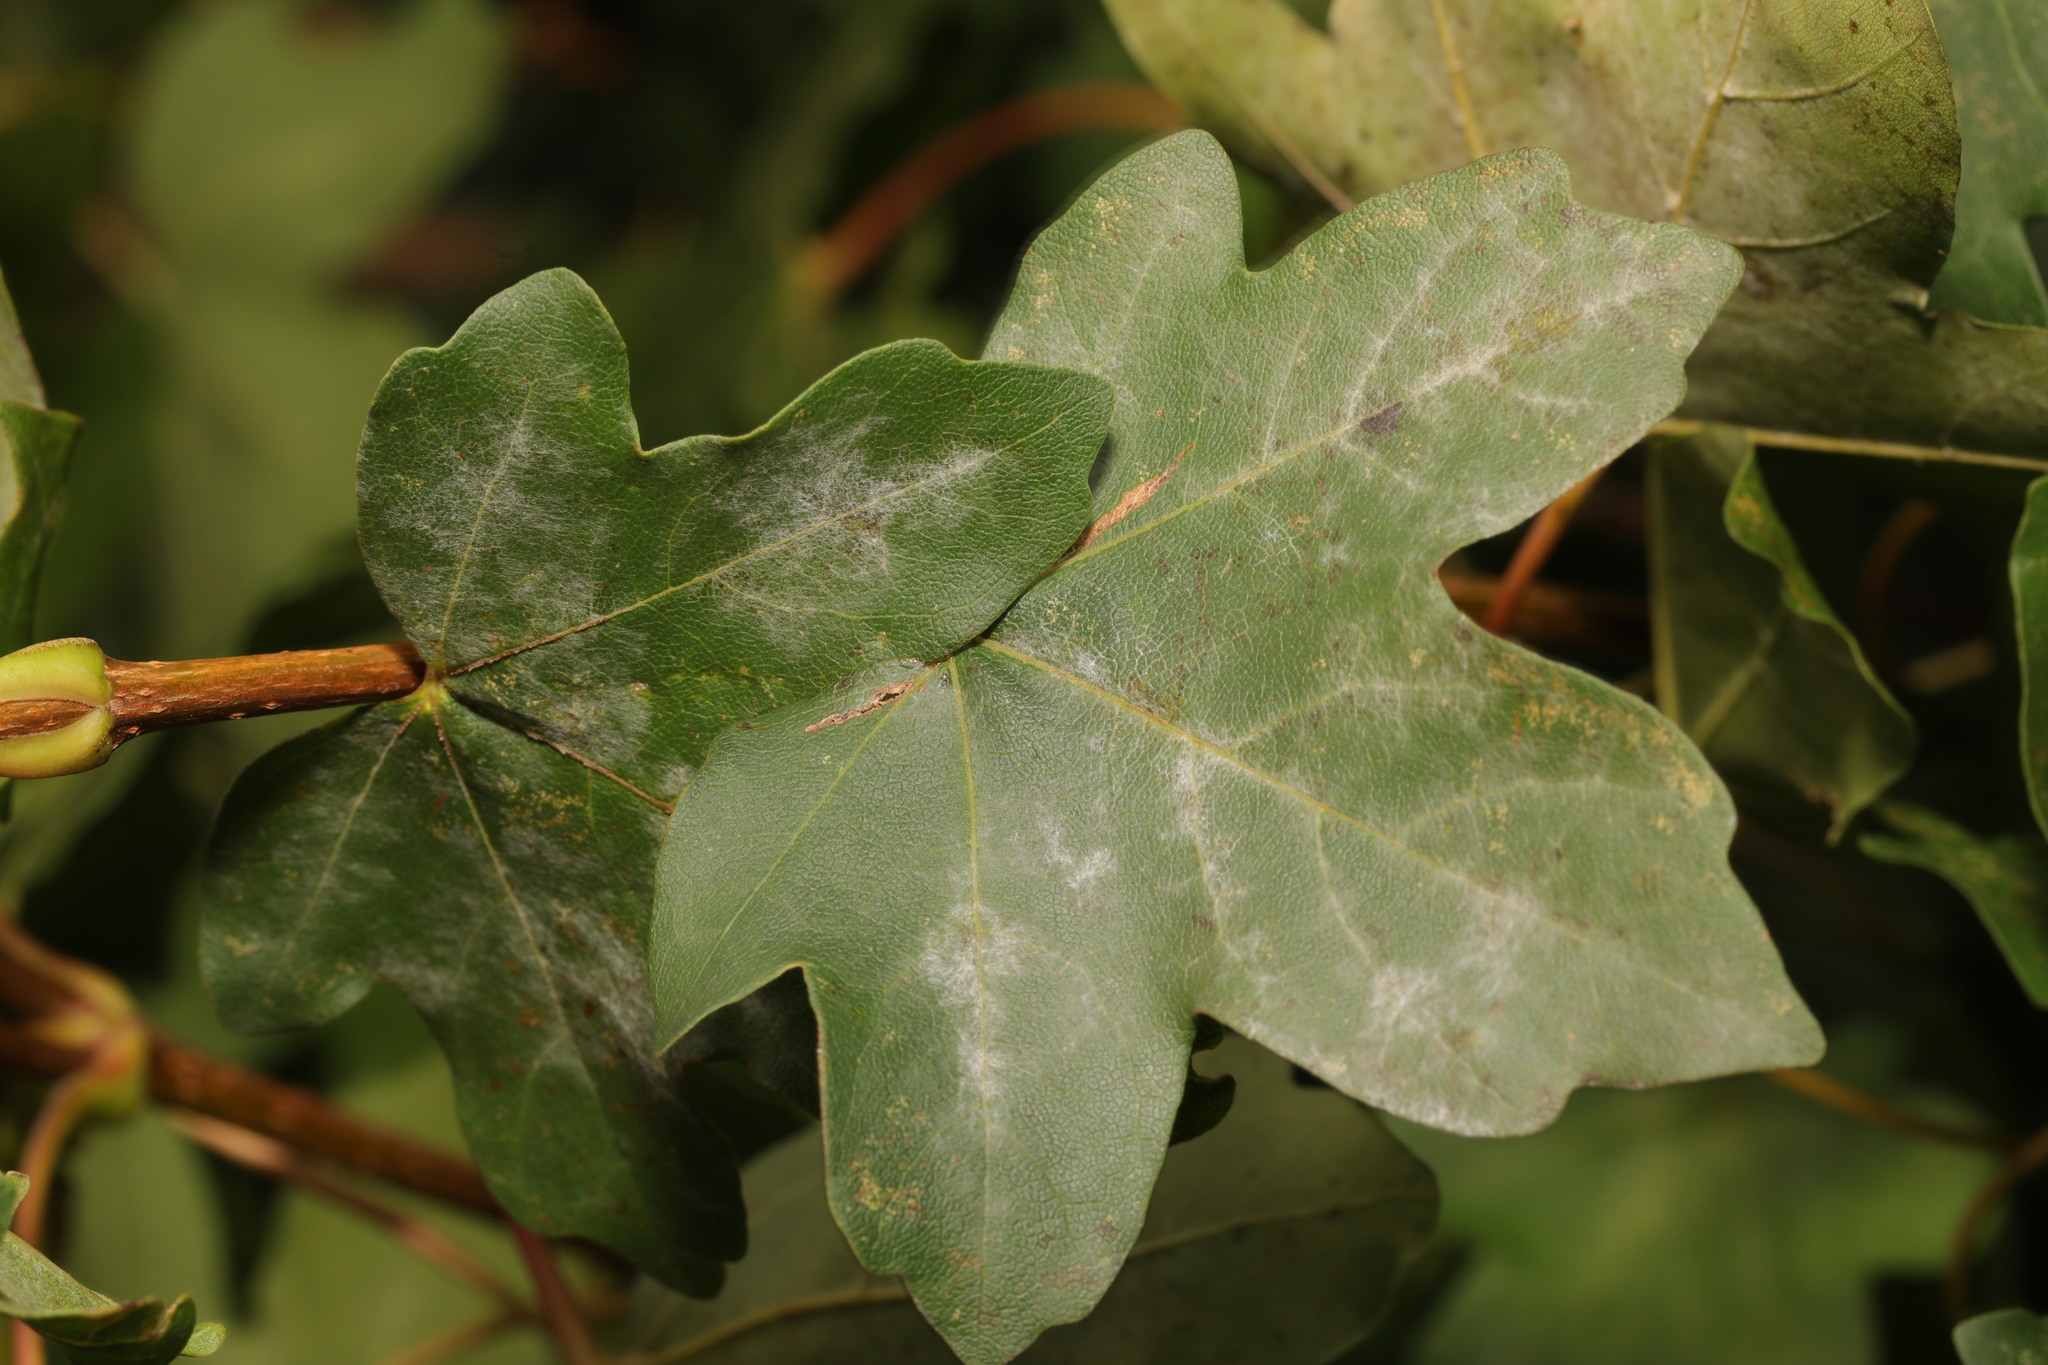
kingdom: Fungi
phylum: Ascomycota
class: Leotiomycetes
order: Helotiales
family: Erysiphaceae
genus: Sawadaea
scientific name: Sawadaea bicornis
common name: Maple mildew
